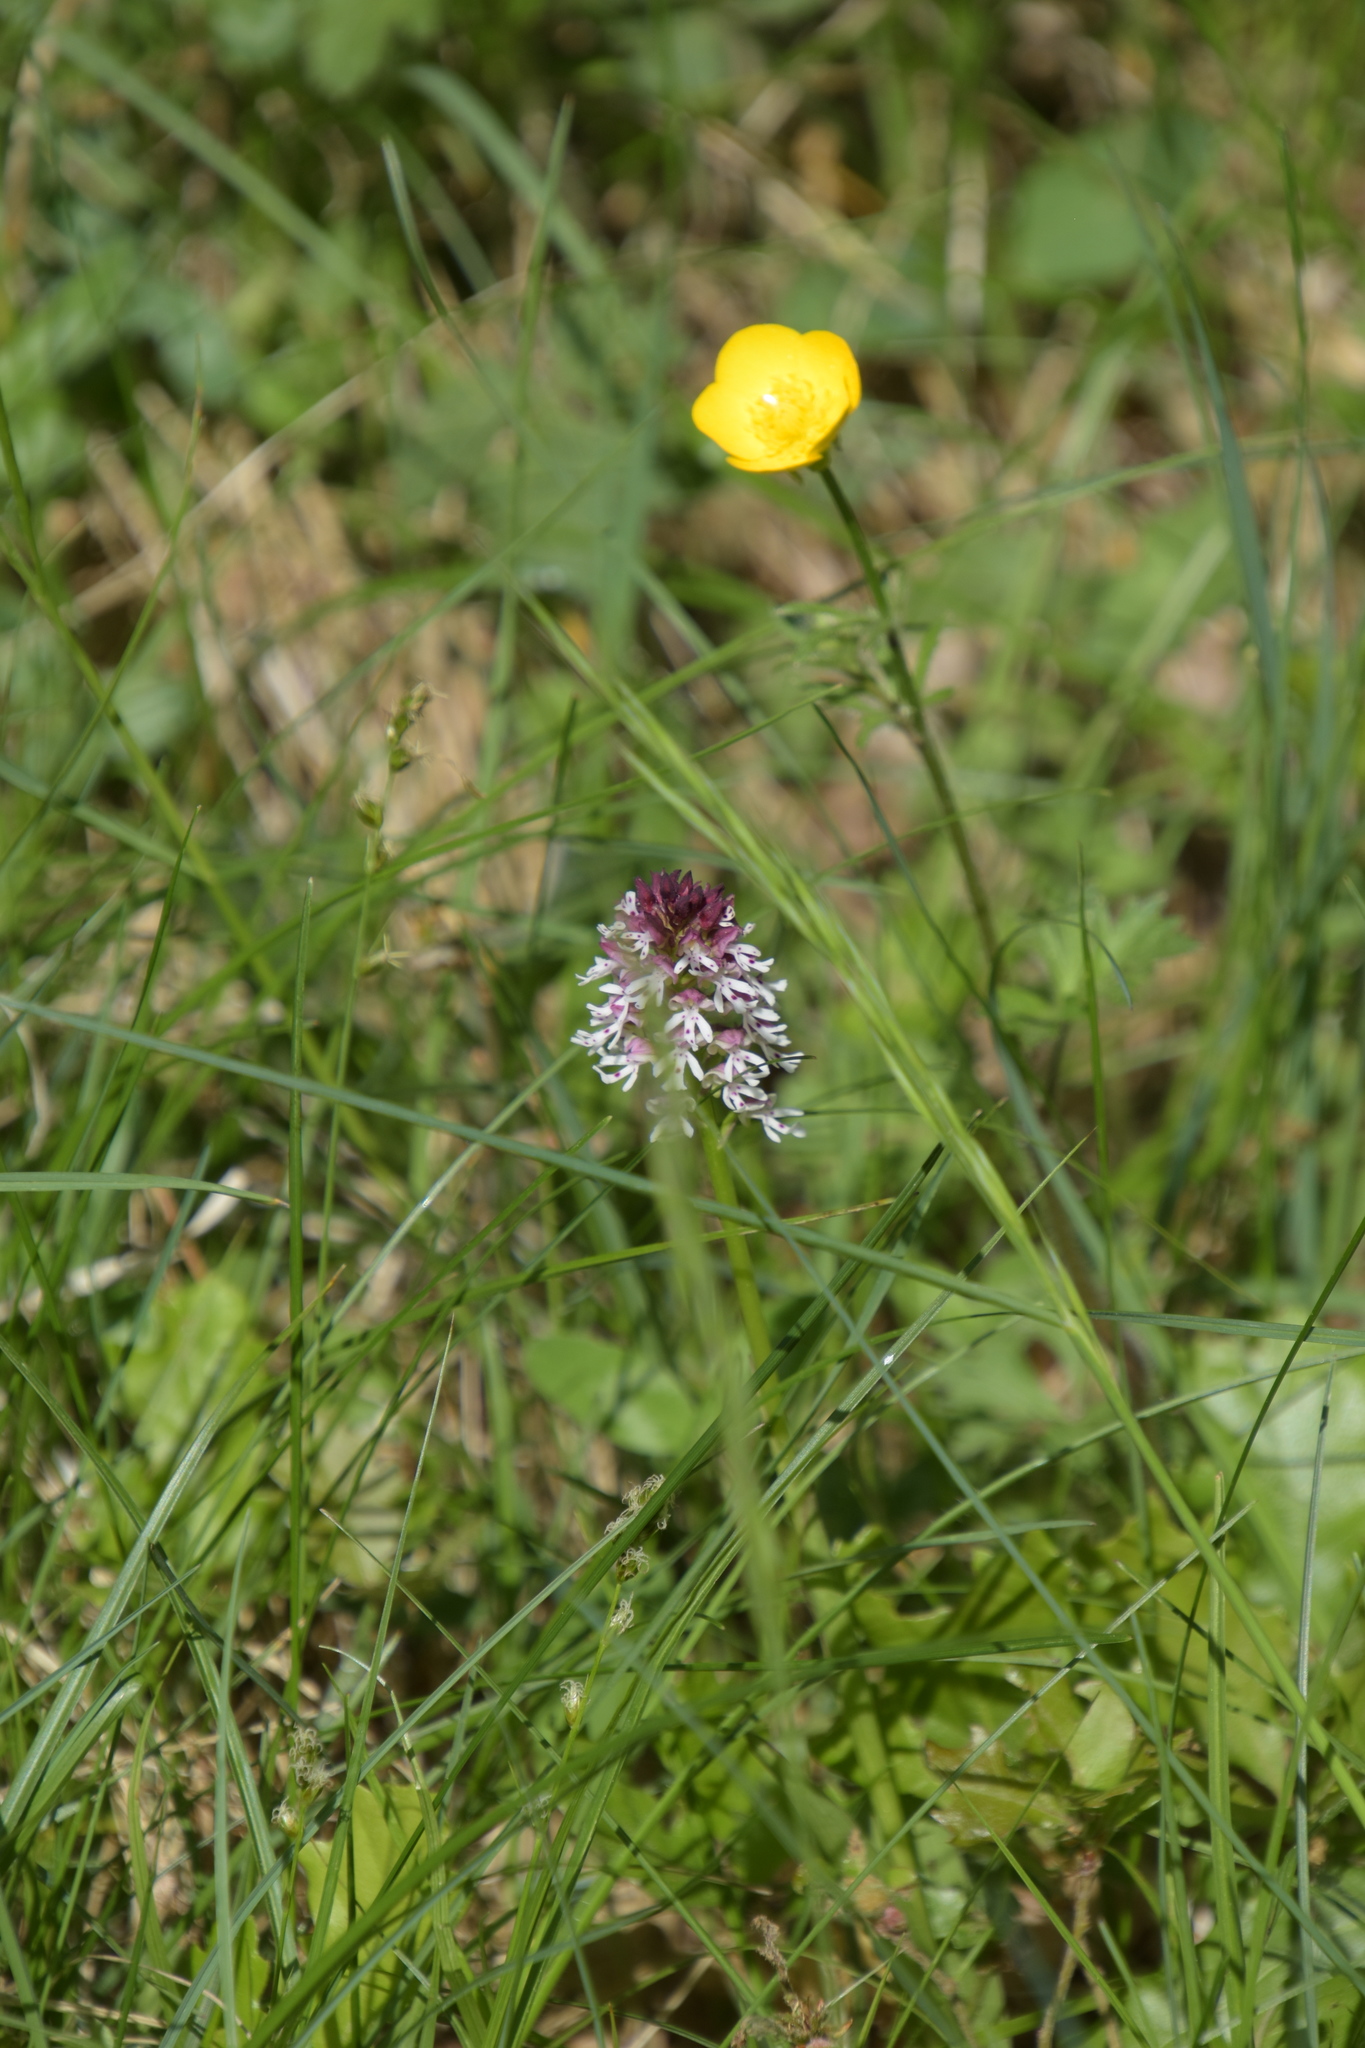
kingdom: Plantae
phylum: Tracheophyta
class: Liliopsida
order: Asparagales
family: Orchidaceae
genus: Neotinea
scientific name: Neotinea ustulata
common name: Burnt orchid
